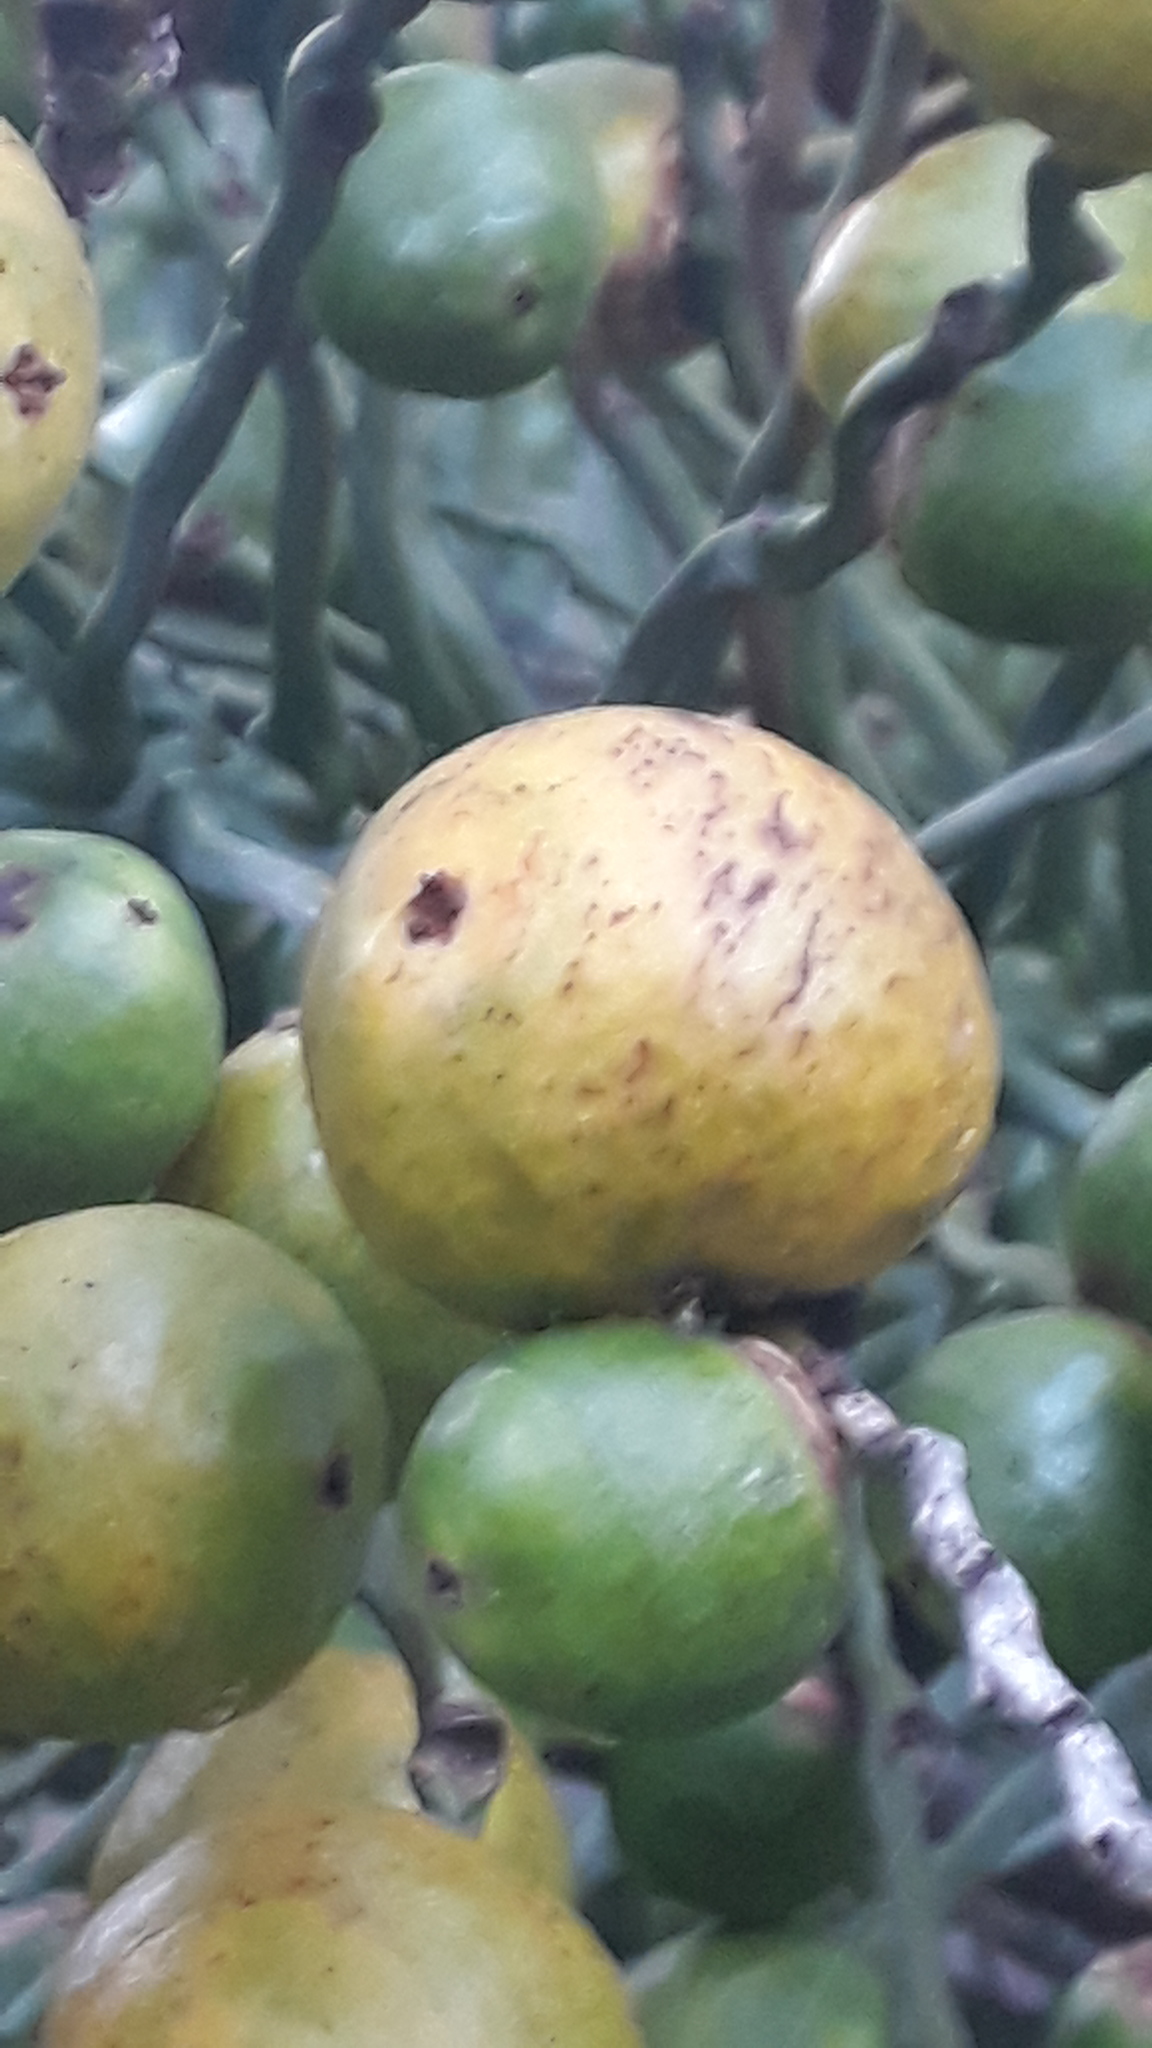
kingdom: Plantae
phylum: Tracheophyta
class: Liliopsida
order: Arecales
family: Arecaceae
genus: Butia
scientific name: Butia odorata
